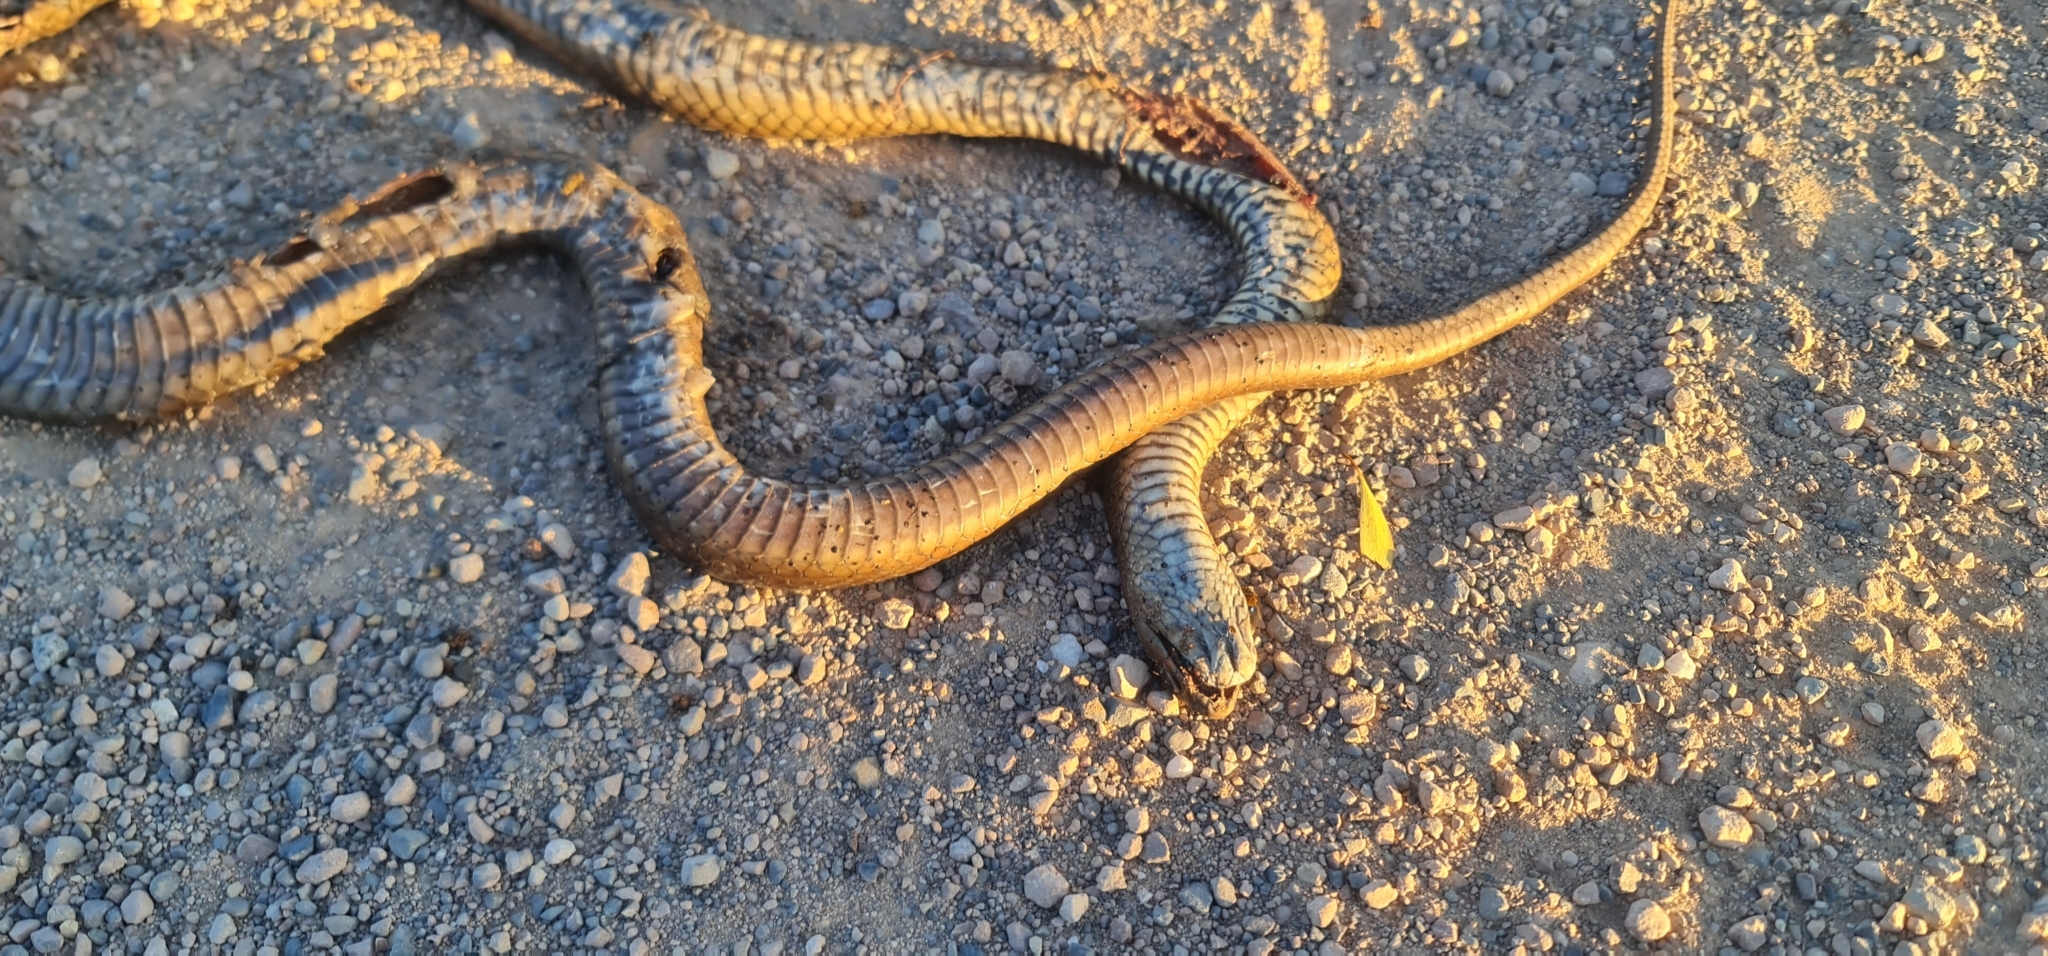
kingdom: Animalia
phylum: Chordata
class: Squamata
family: Elapidae
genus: Pseudonaja
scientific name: Pseudonaja textilis
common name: Eastern brown snake
